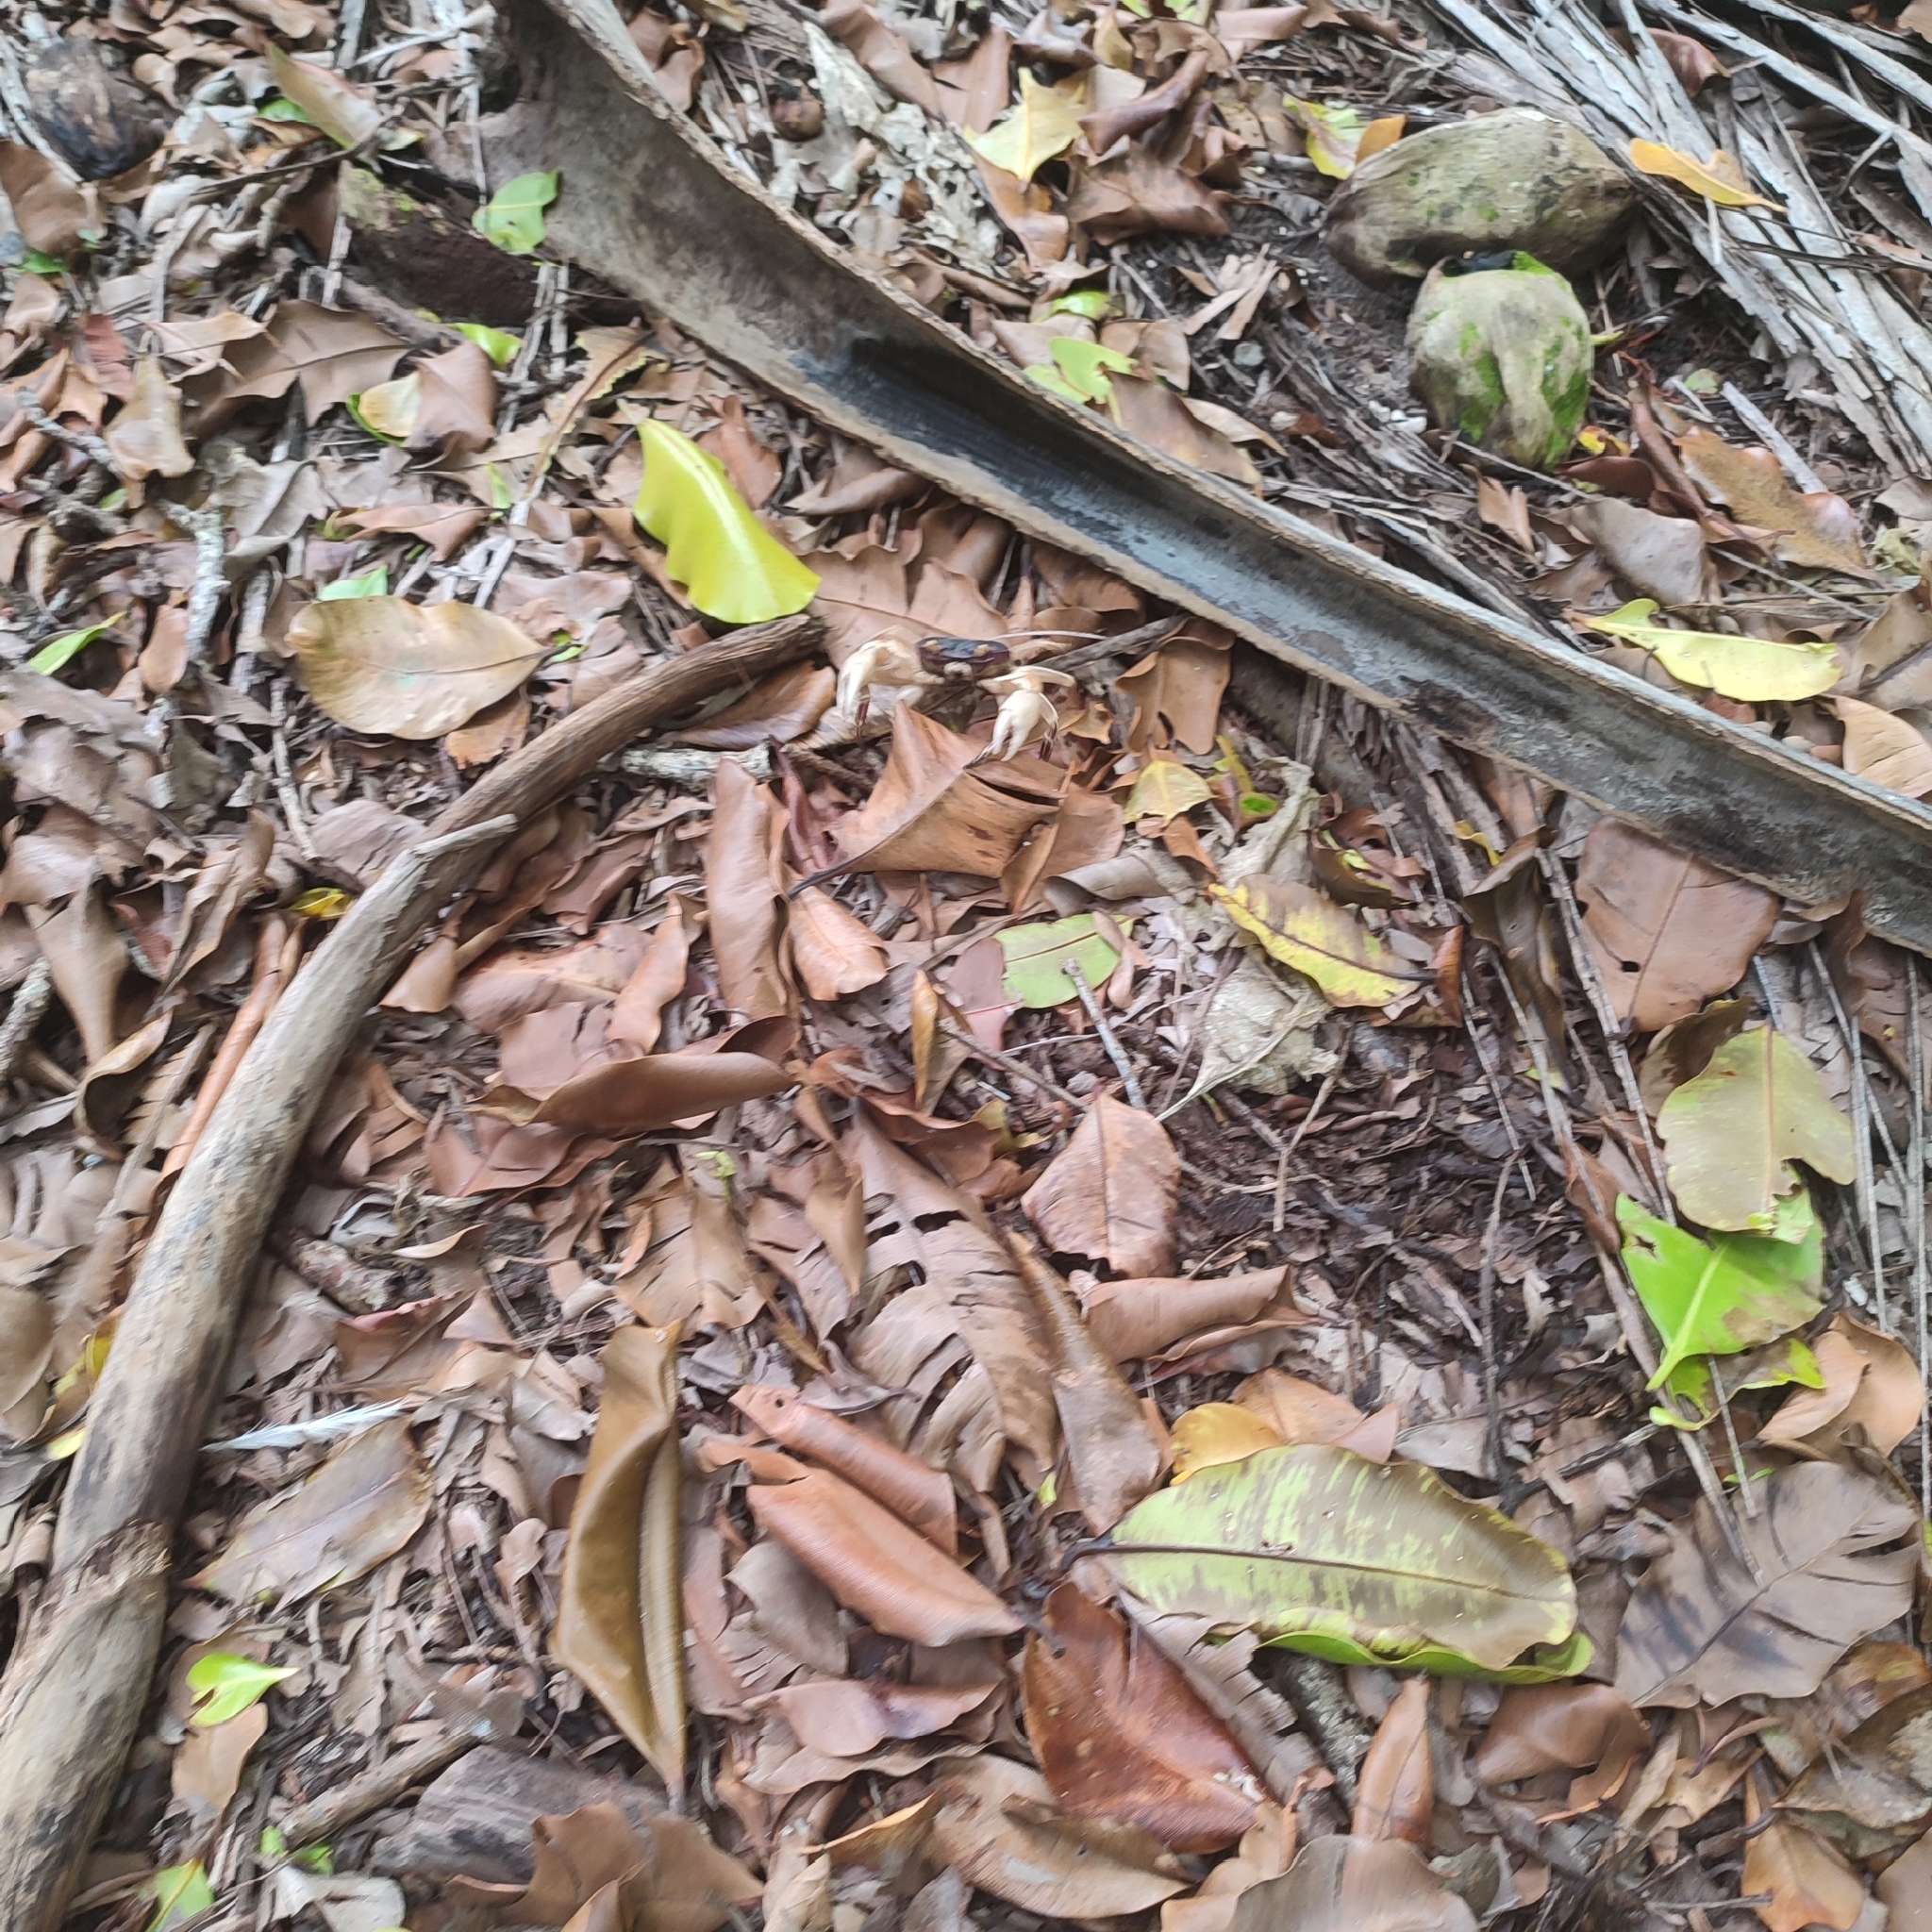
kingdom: Animalia
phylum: Arthropoda
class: Malacostraca
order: Decapoda
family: Grapsidae
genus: Geograpsus
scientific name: Geograpsus grayi
